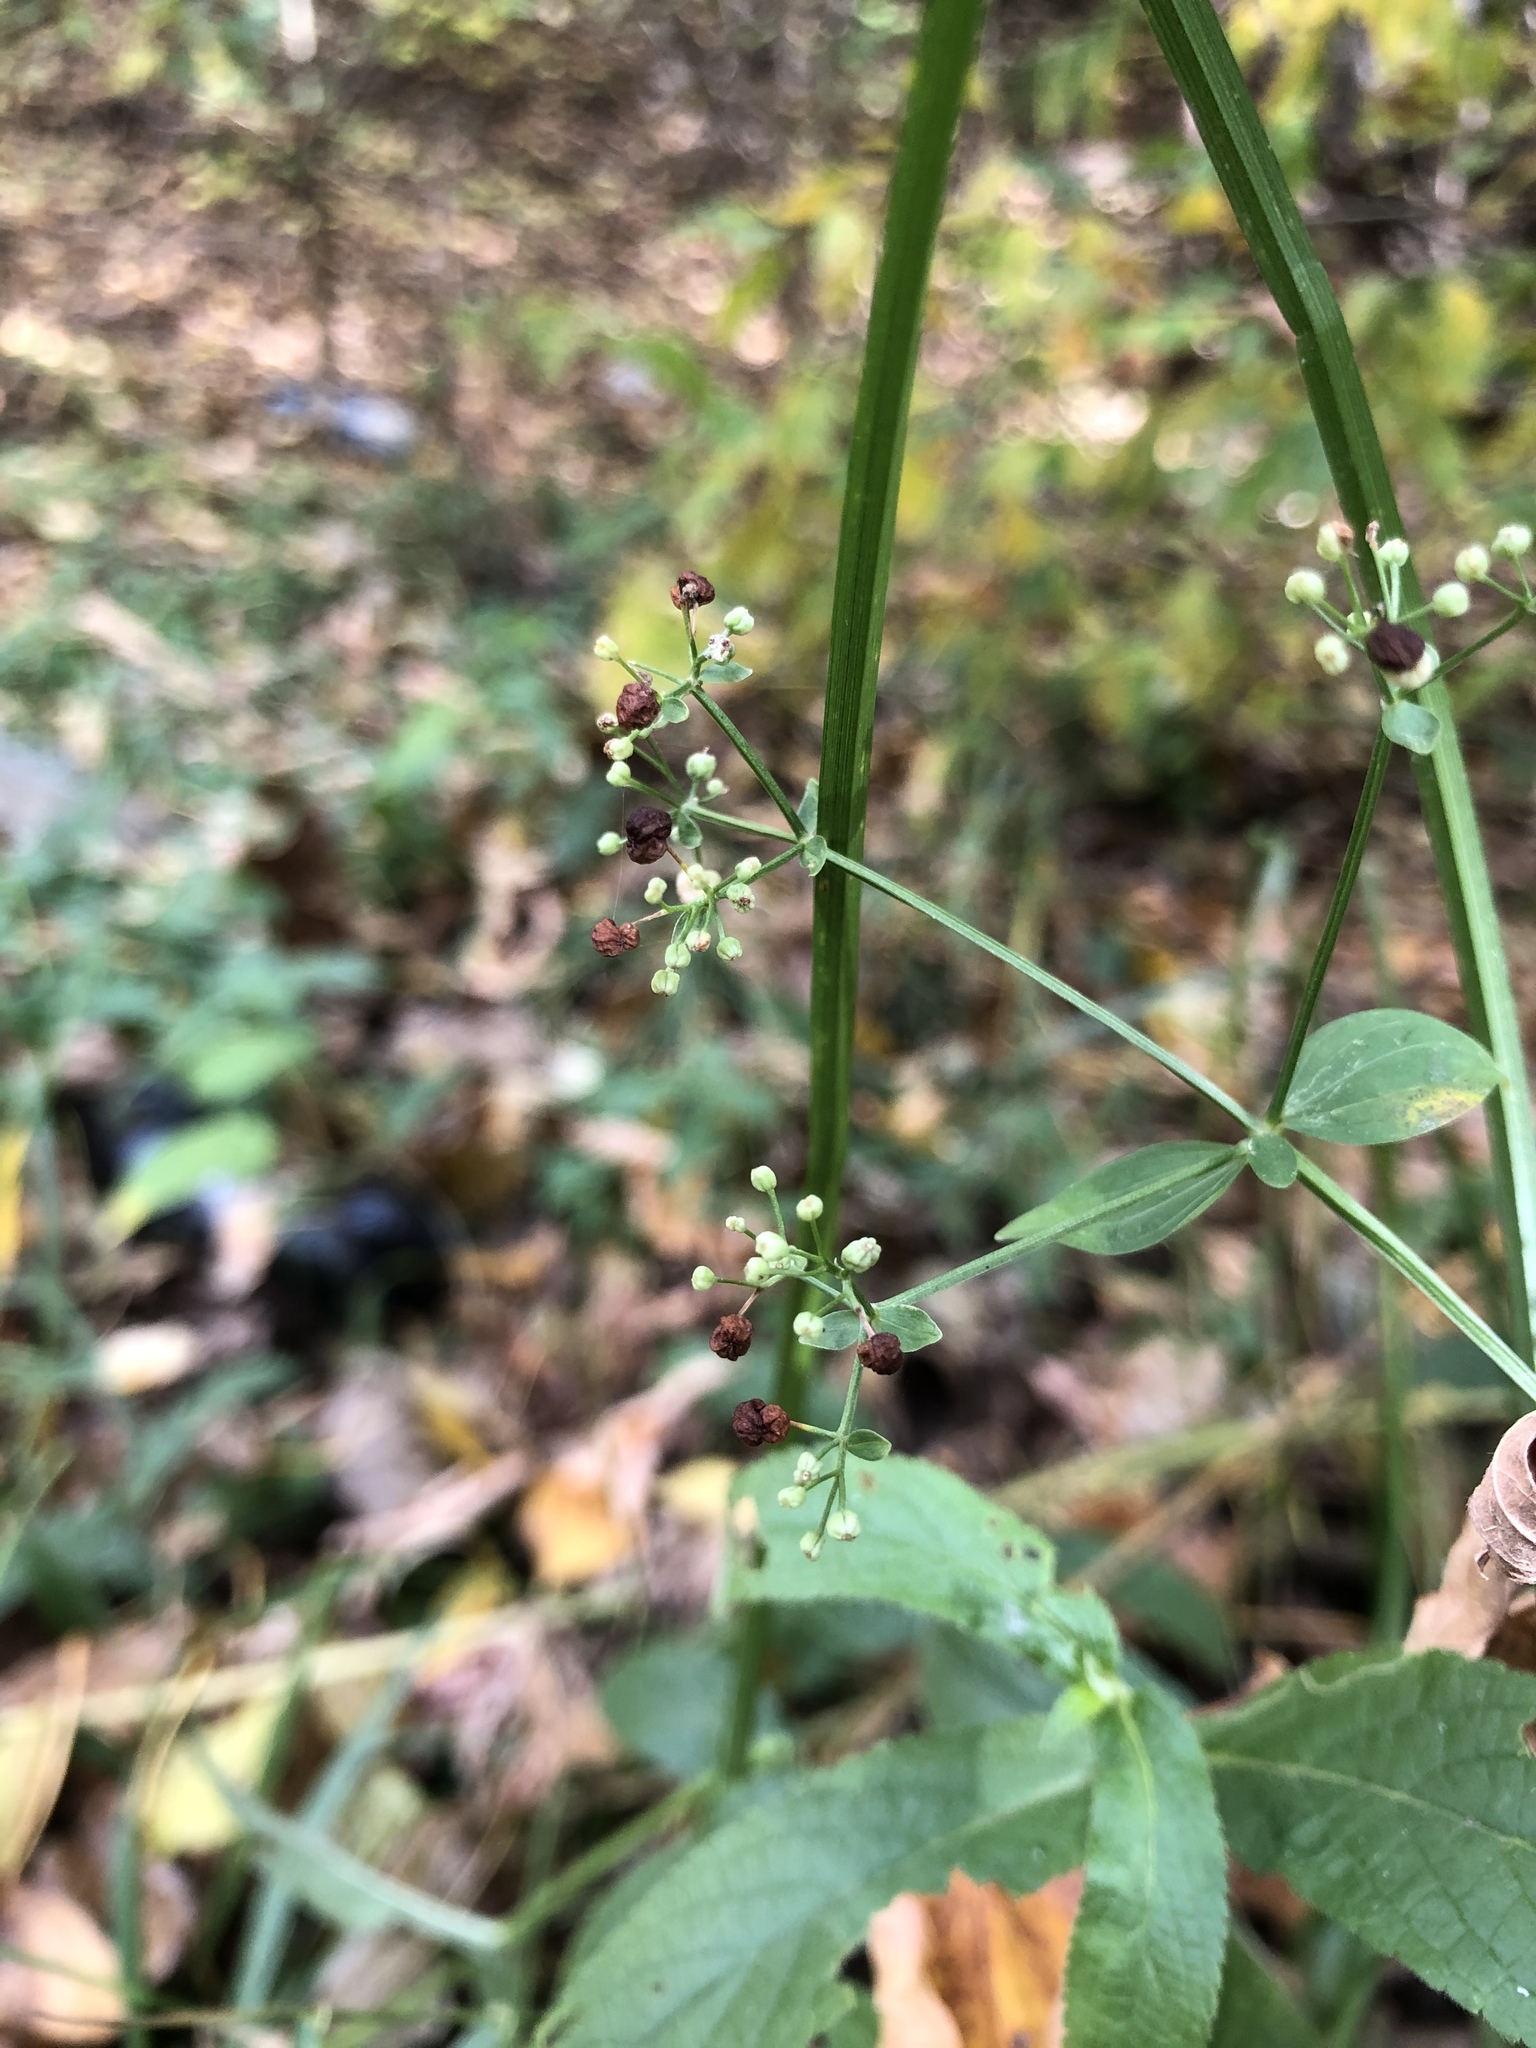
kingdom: Plantae
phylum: Tracheophyta
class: Magnoliopsida
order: Gentianales
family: Rubiaceae
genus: Galium
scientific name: Galium rubioides
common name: European bedstraw
